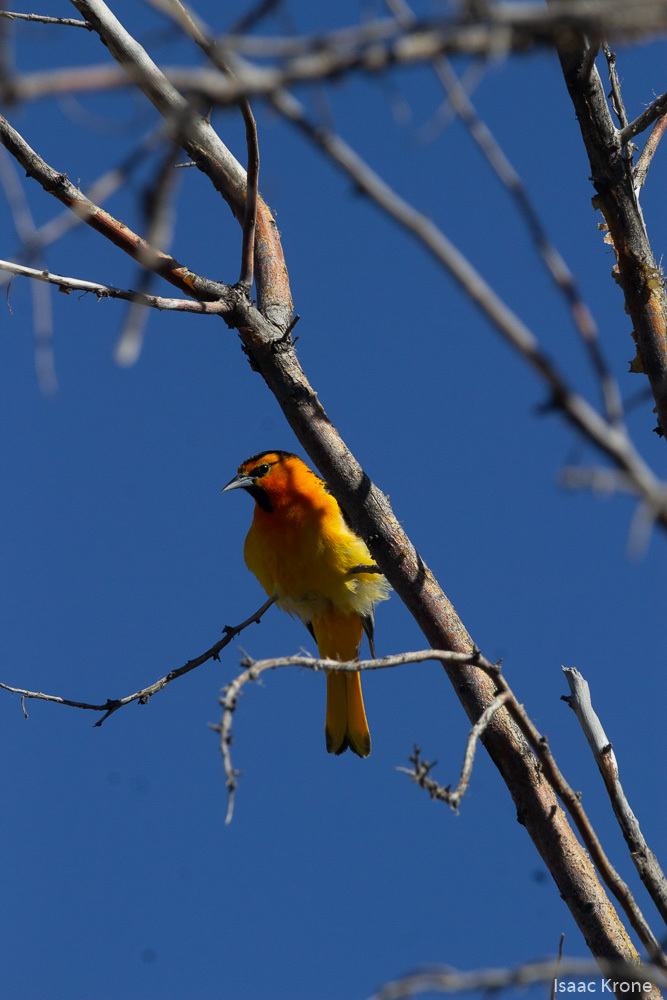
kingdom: Animalia
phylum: Chordata
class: Aves
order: Passeriformes
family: Icteridae
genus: Icterus
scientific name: Icterus bullockii
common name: Bullock's oriole
